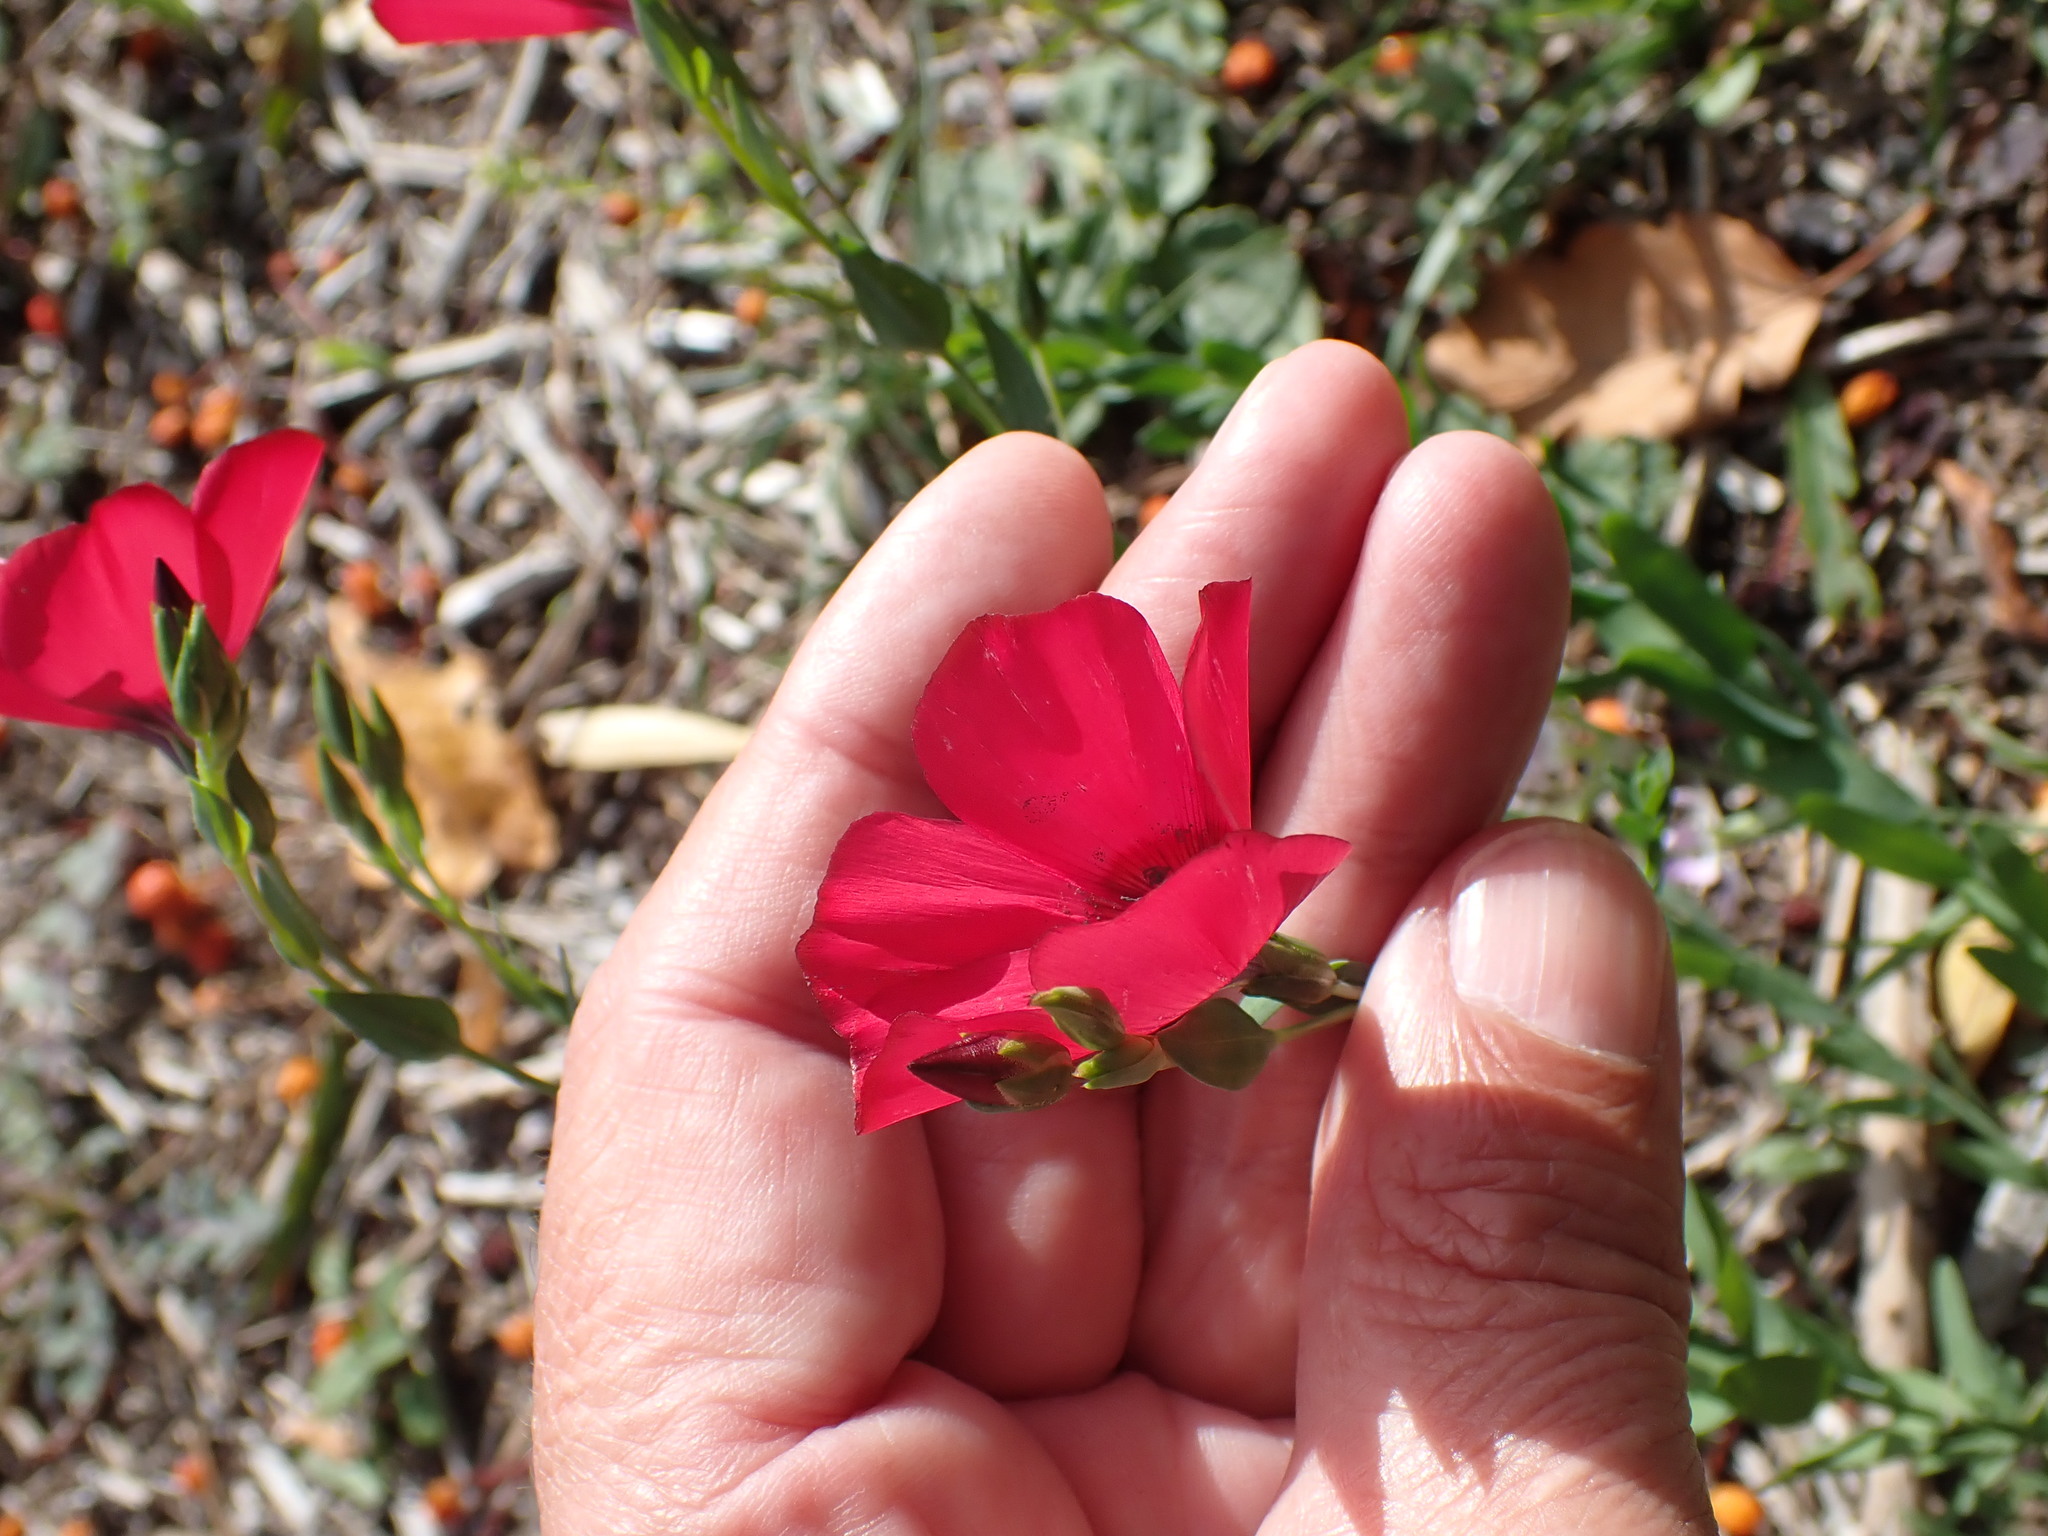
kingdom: Plantae
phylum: Tracheophyta
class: Magnoliopsida
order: Malpighiales
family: Linaceae
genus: Linum
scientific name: Linum grandiflorum
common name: Crimson flax
